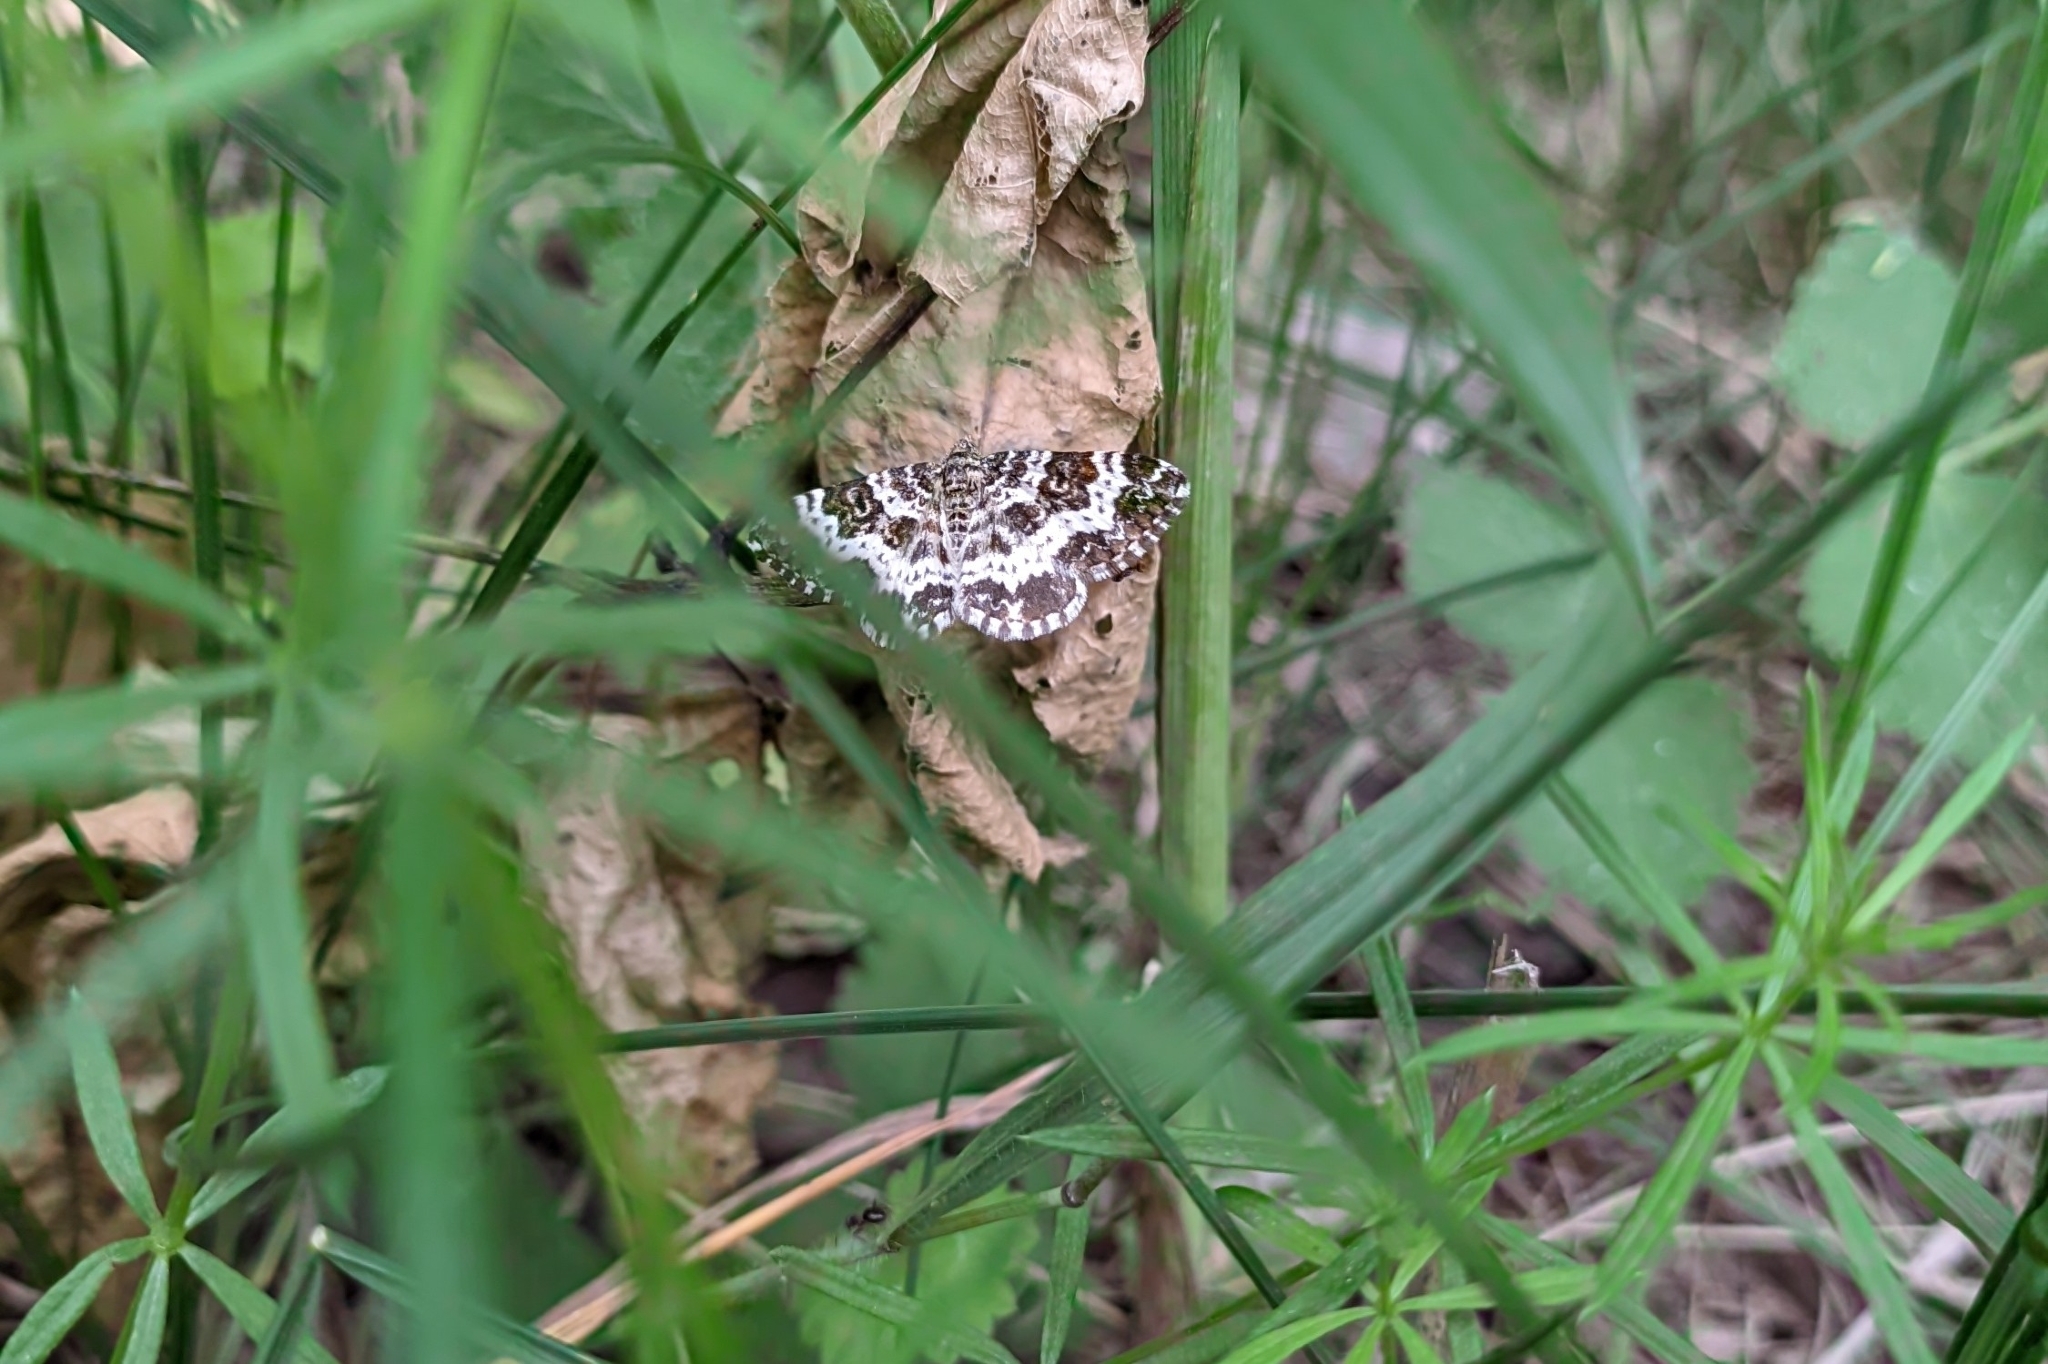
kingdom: Animalia
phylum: Arthropoda
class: Insecta
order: Lepidoptera
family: Geometridae
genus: Epirrhoe
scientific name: Epirrhoe tristata
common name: Small argent & sable
